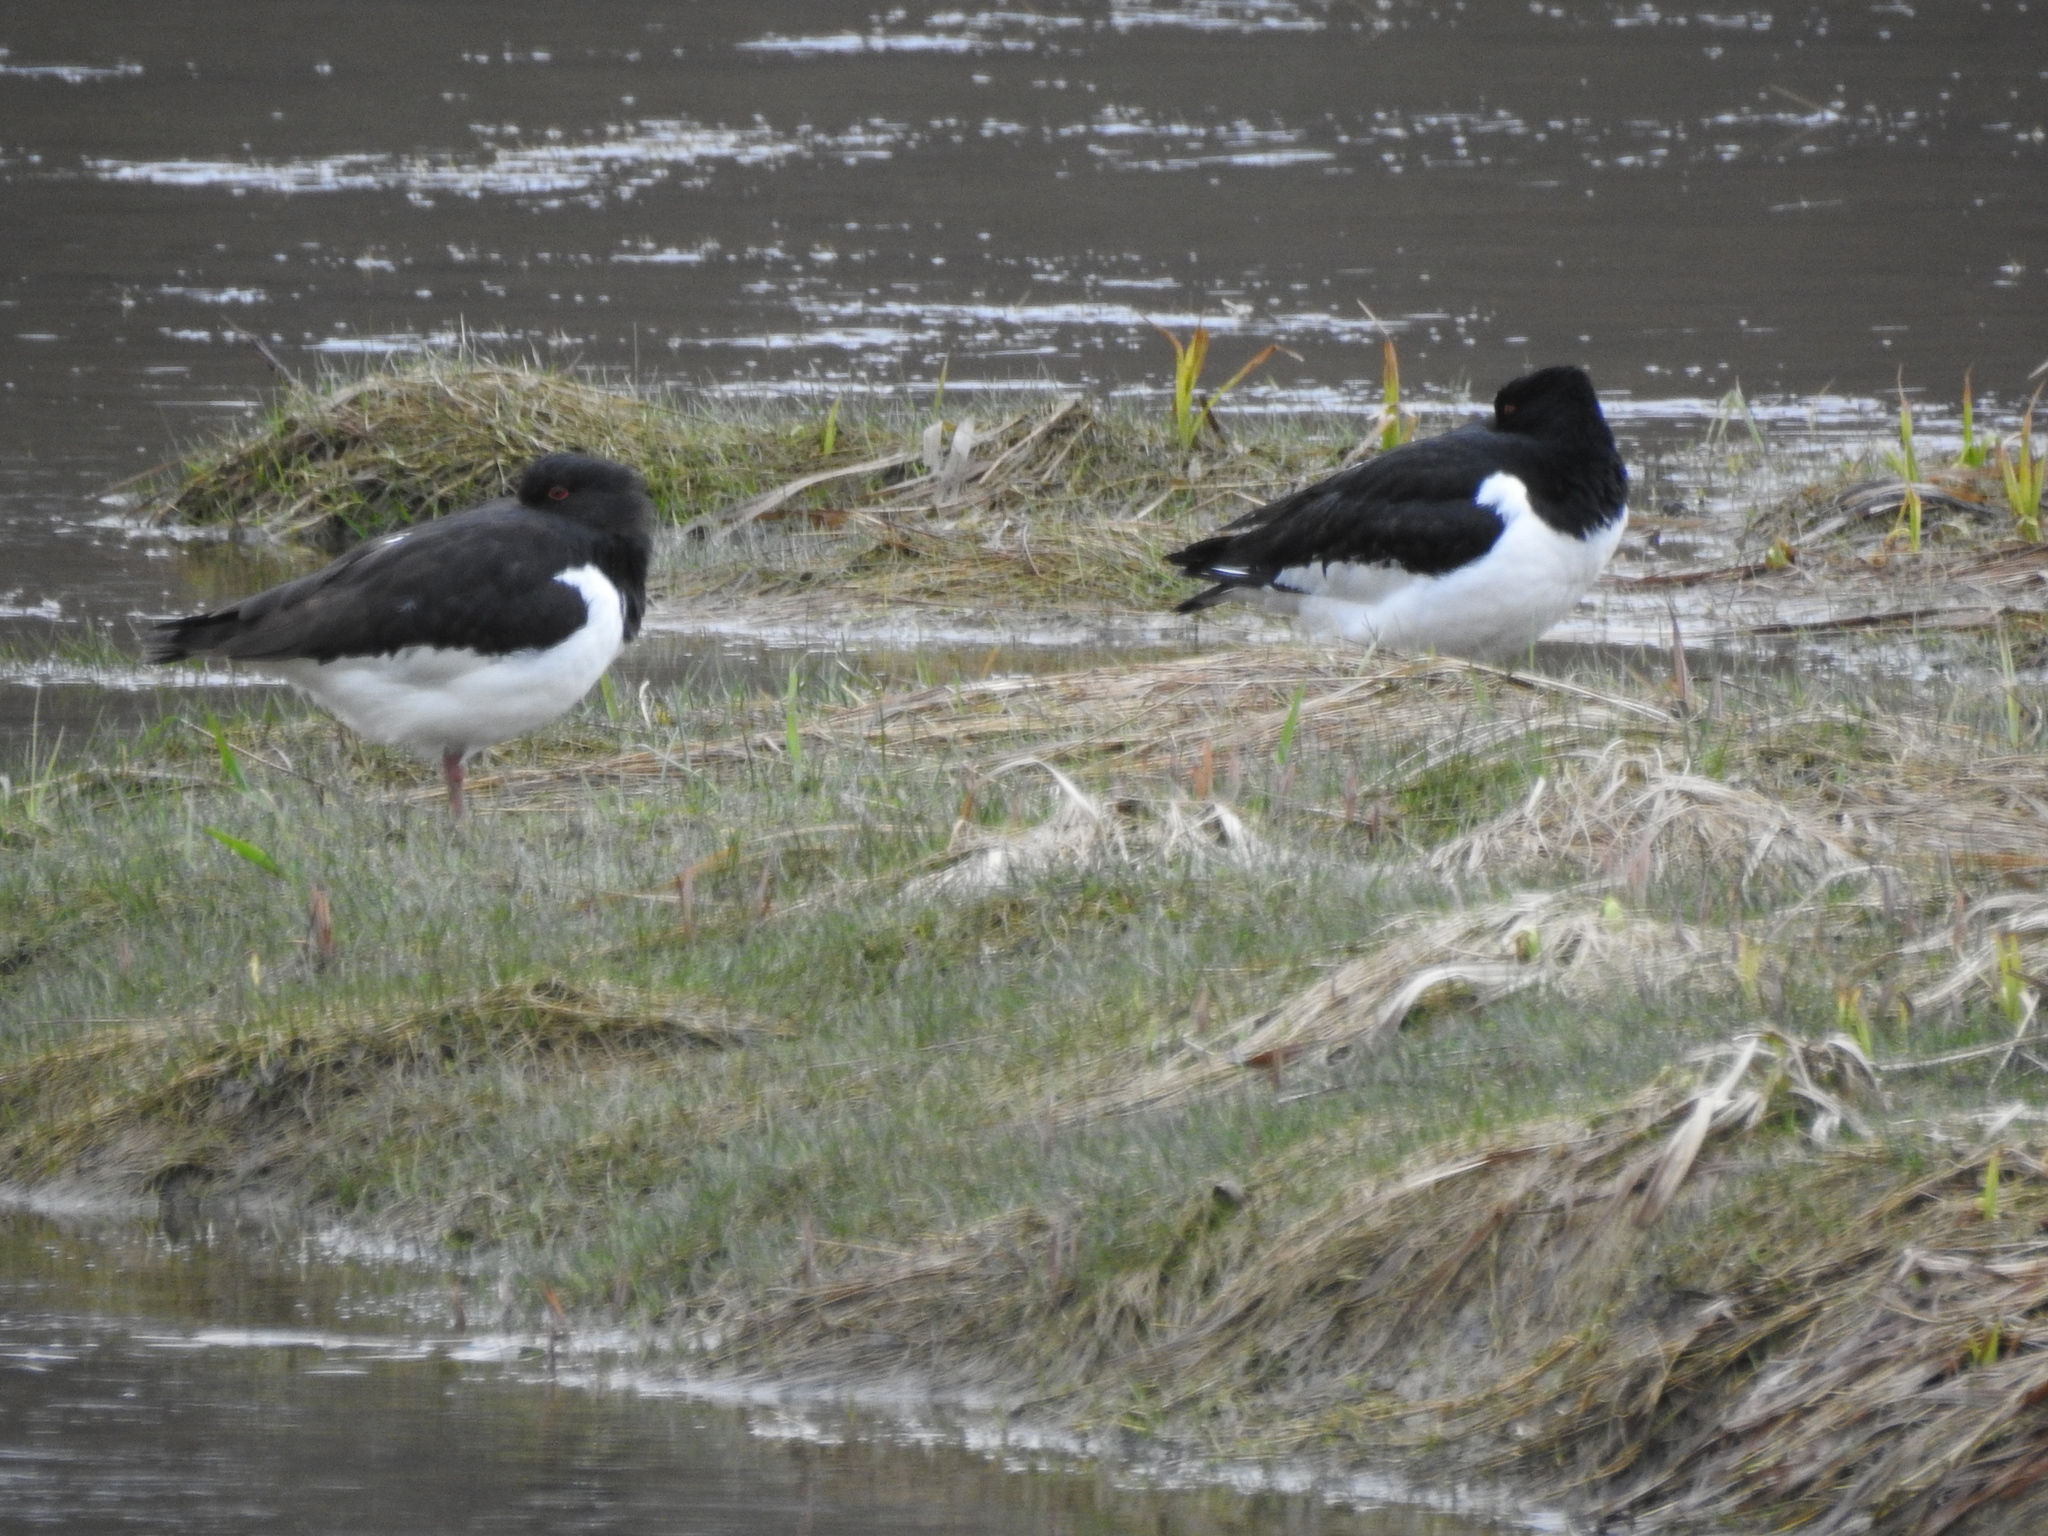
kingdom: Animalia
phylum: Chordata
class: Aves
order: Charadriiformes
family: Haematopodidae
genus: Haematopus
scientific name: Haematopus ostralegus
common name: Eurasian oystercatcher
